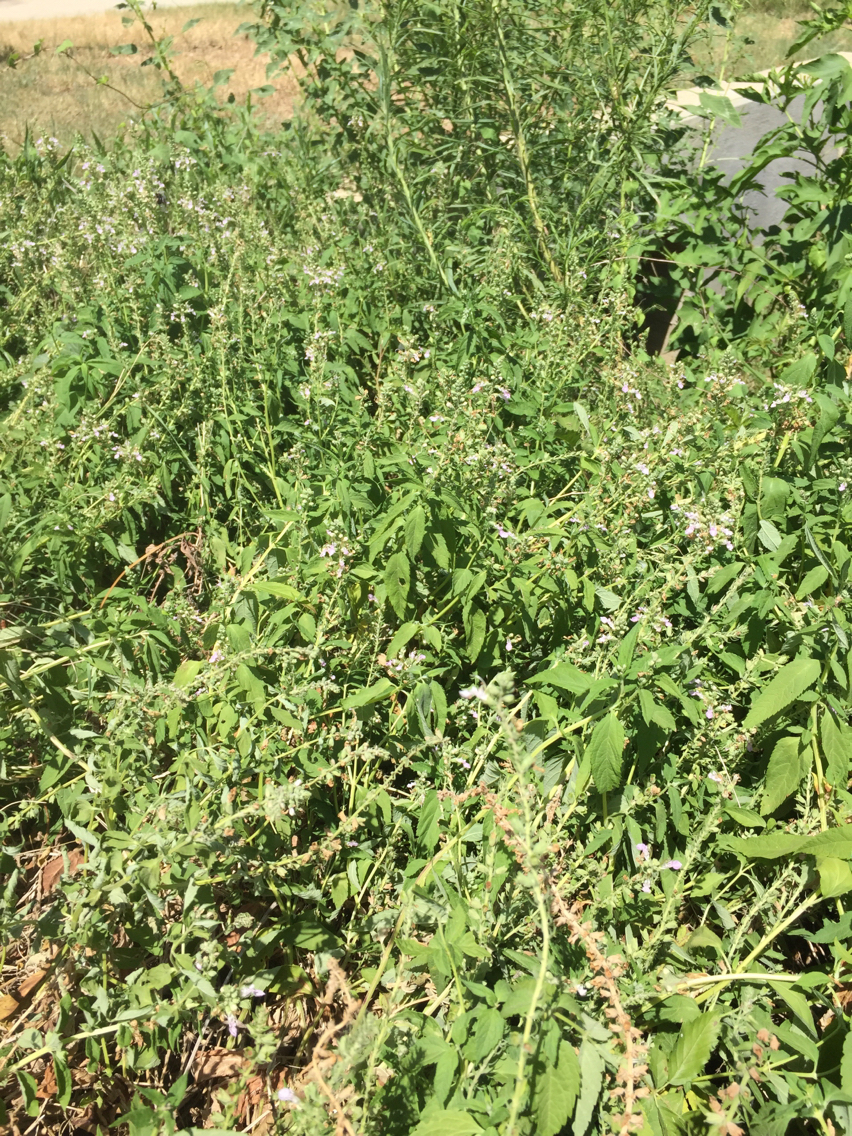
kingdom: Plantae
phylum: Tracheophyta
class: Magnoliopsida
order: Lamiales
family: Lamiaceae
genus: Teucrium
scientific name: Teucrium canadense
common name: American germander
